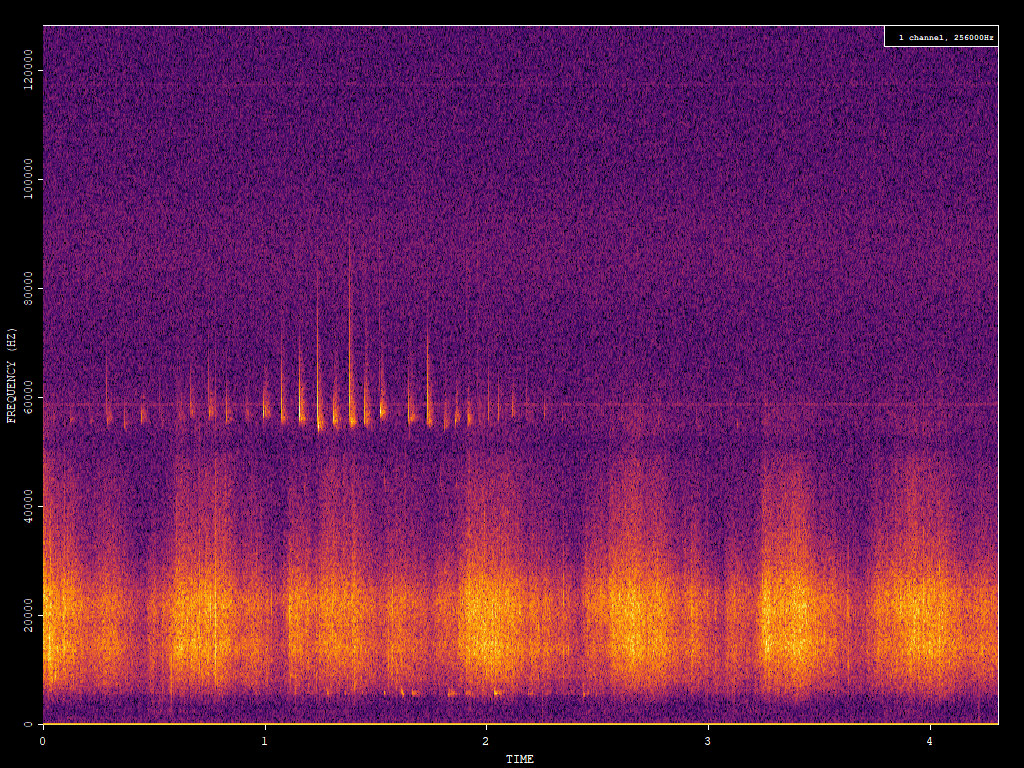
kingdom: Animalia
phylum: Chordata
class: Mammalia
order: Chiroptera
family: Vespertilionidae
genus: Pipistrellus
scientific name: Pipistrellus pygmaeus
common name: Soprano pipistrelle
